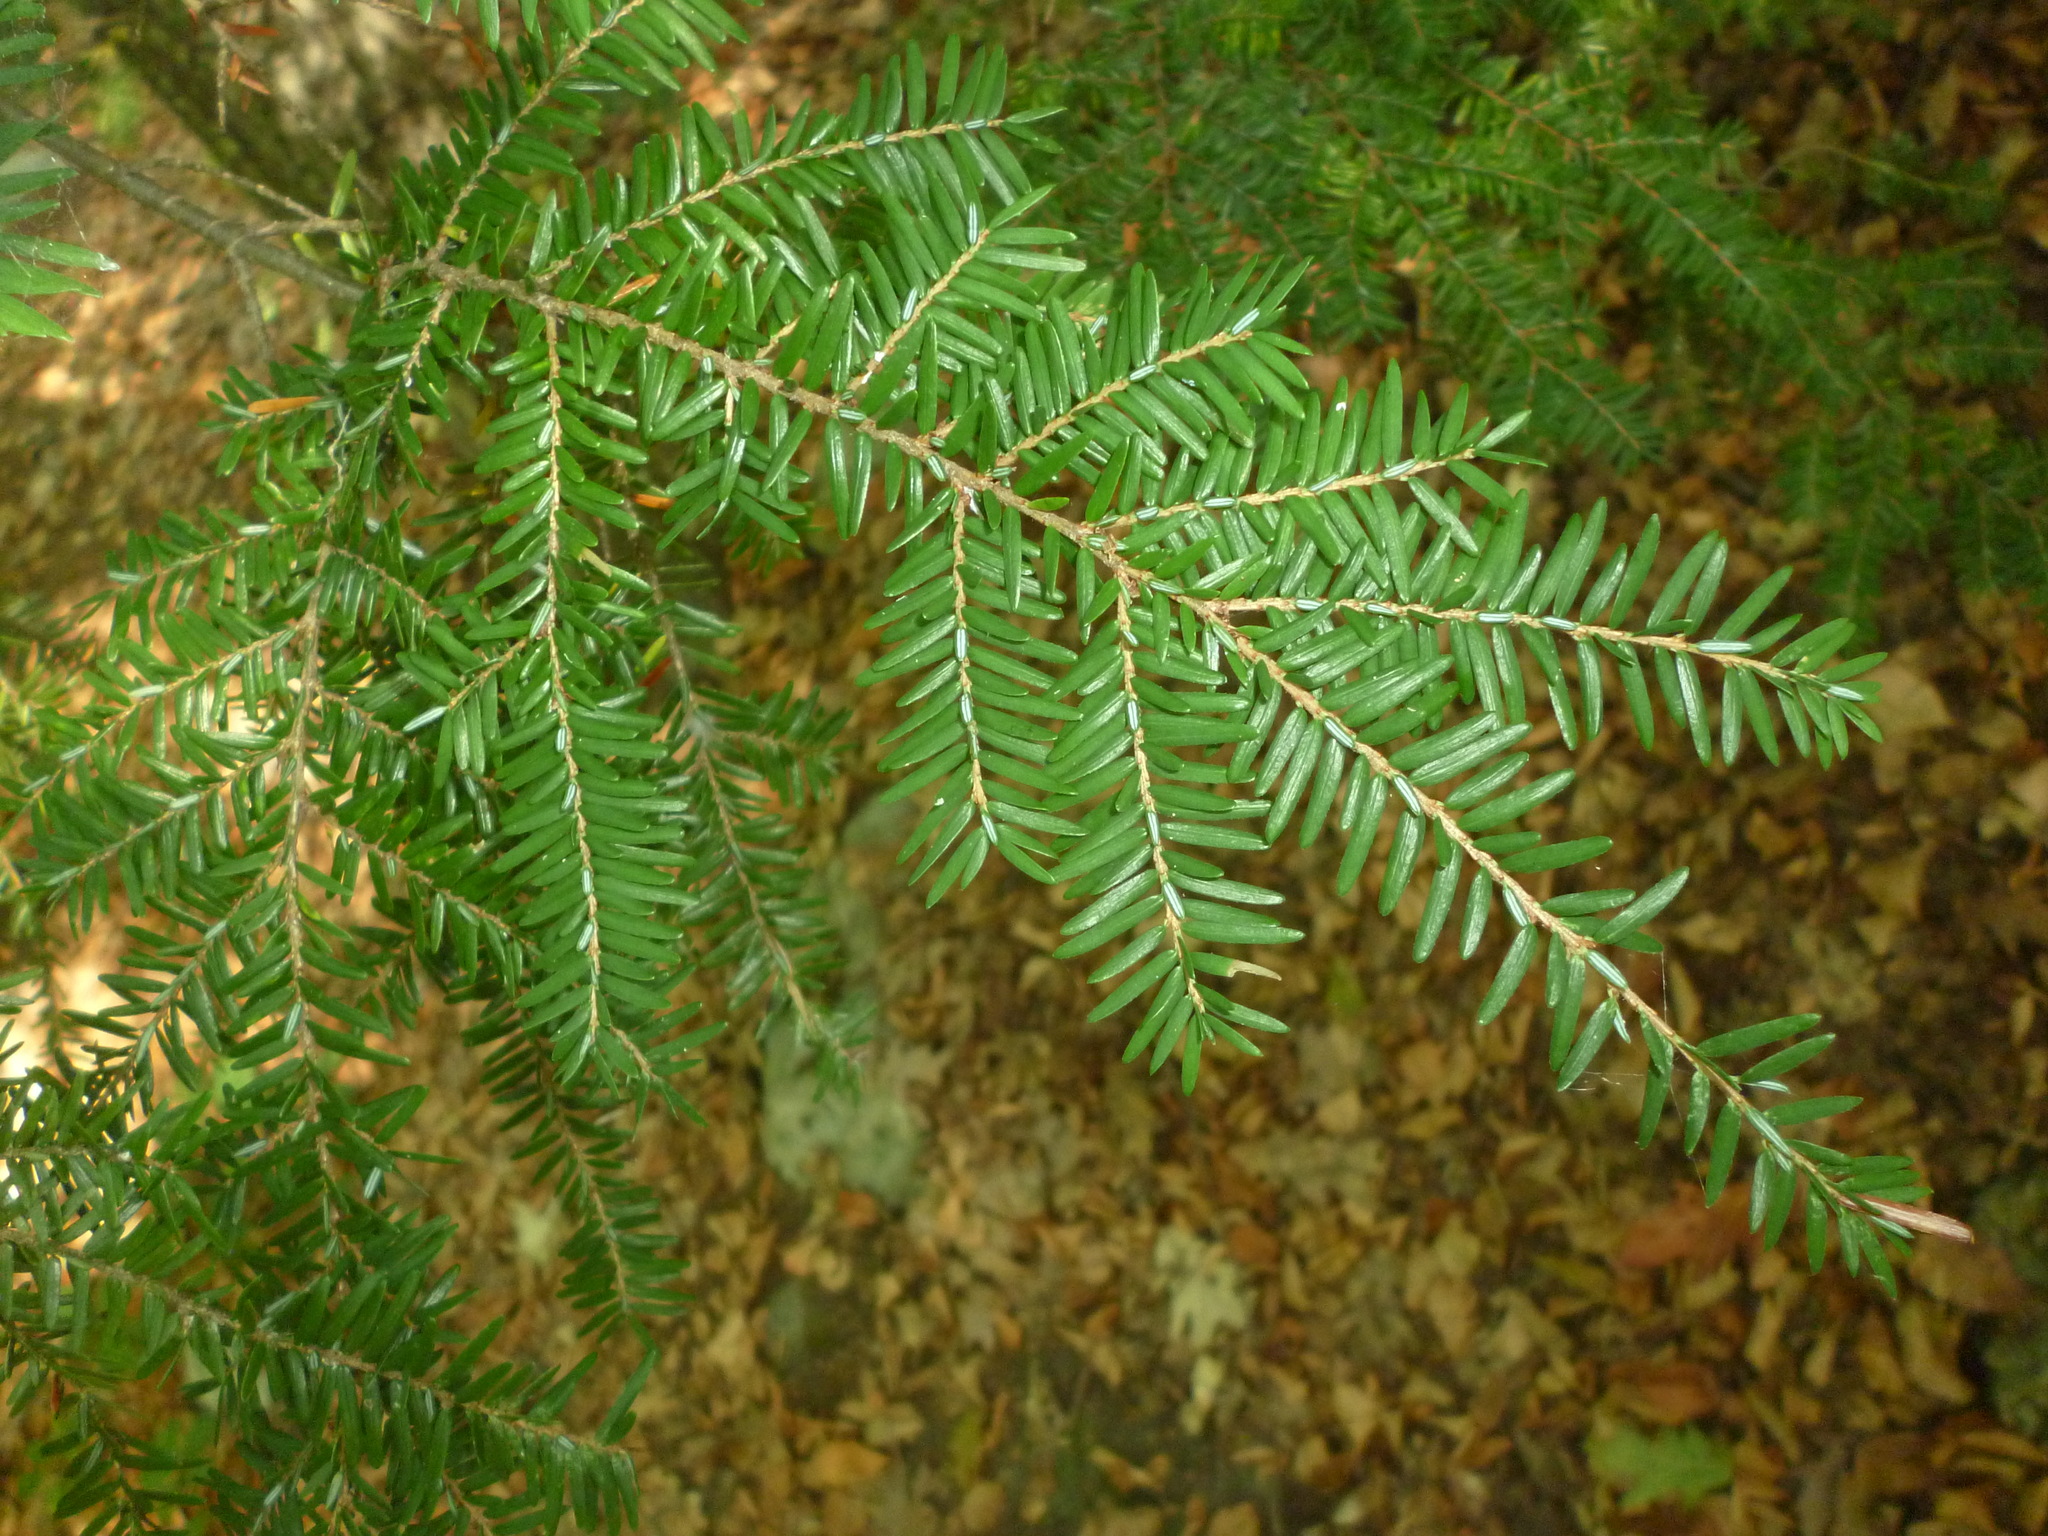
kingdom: Plantae
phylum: Tracheophyta
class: Pinopsida
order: Pinales
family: Pinaceae
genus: Tsuga
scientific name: Tsuga canadensis
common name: Eastern hemlock
